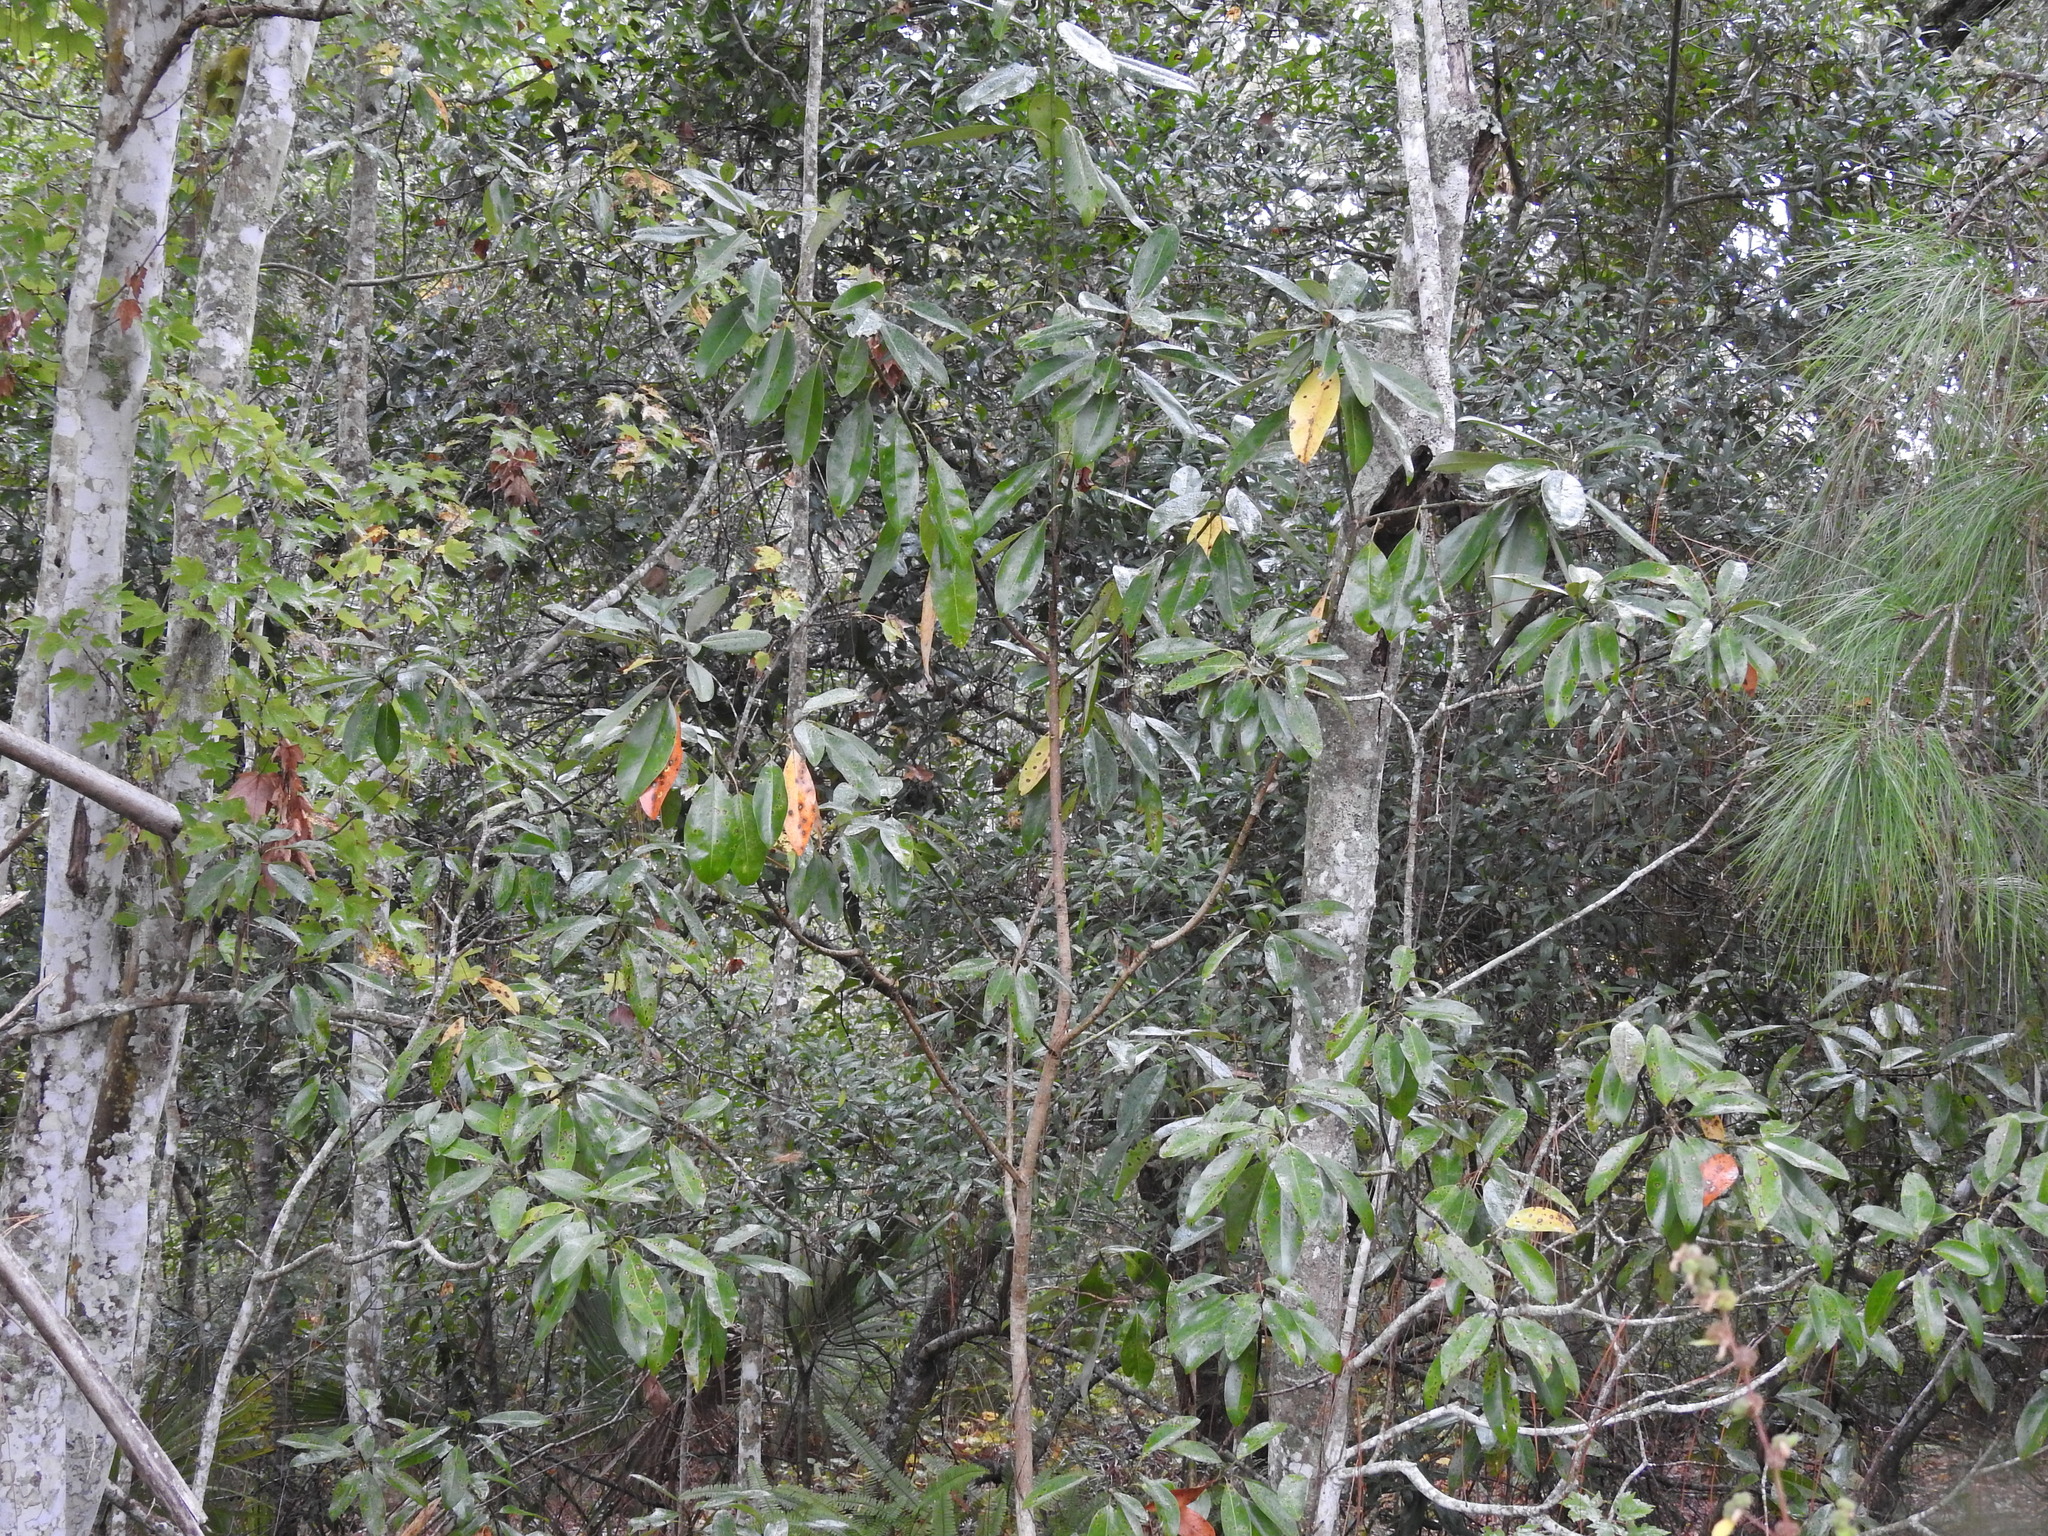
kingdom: Plantae
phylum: Tracheophyta
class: Magnoliopsida
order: Magnoliales
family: Magnoliaceae
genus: Magnolia
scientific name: Magnolia virginiana
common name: Swamp bay
